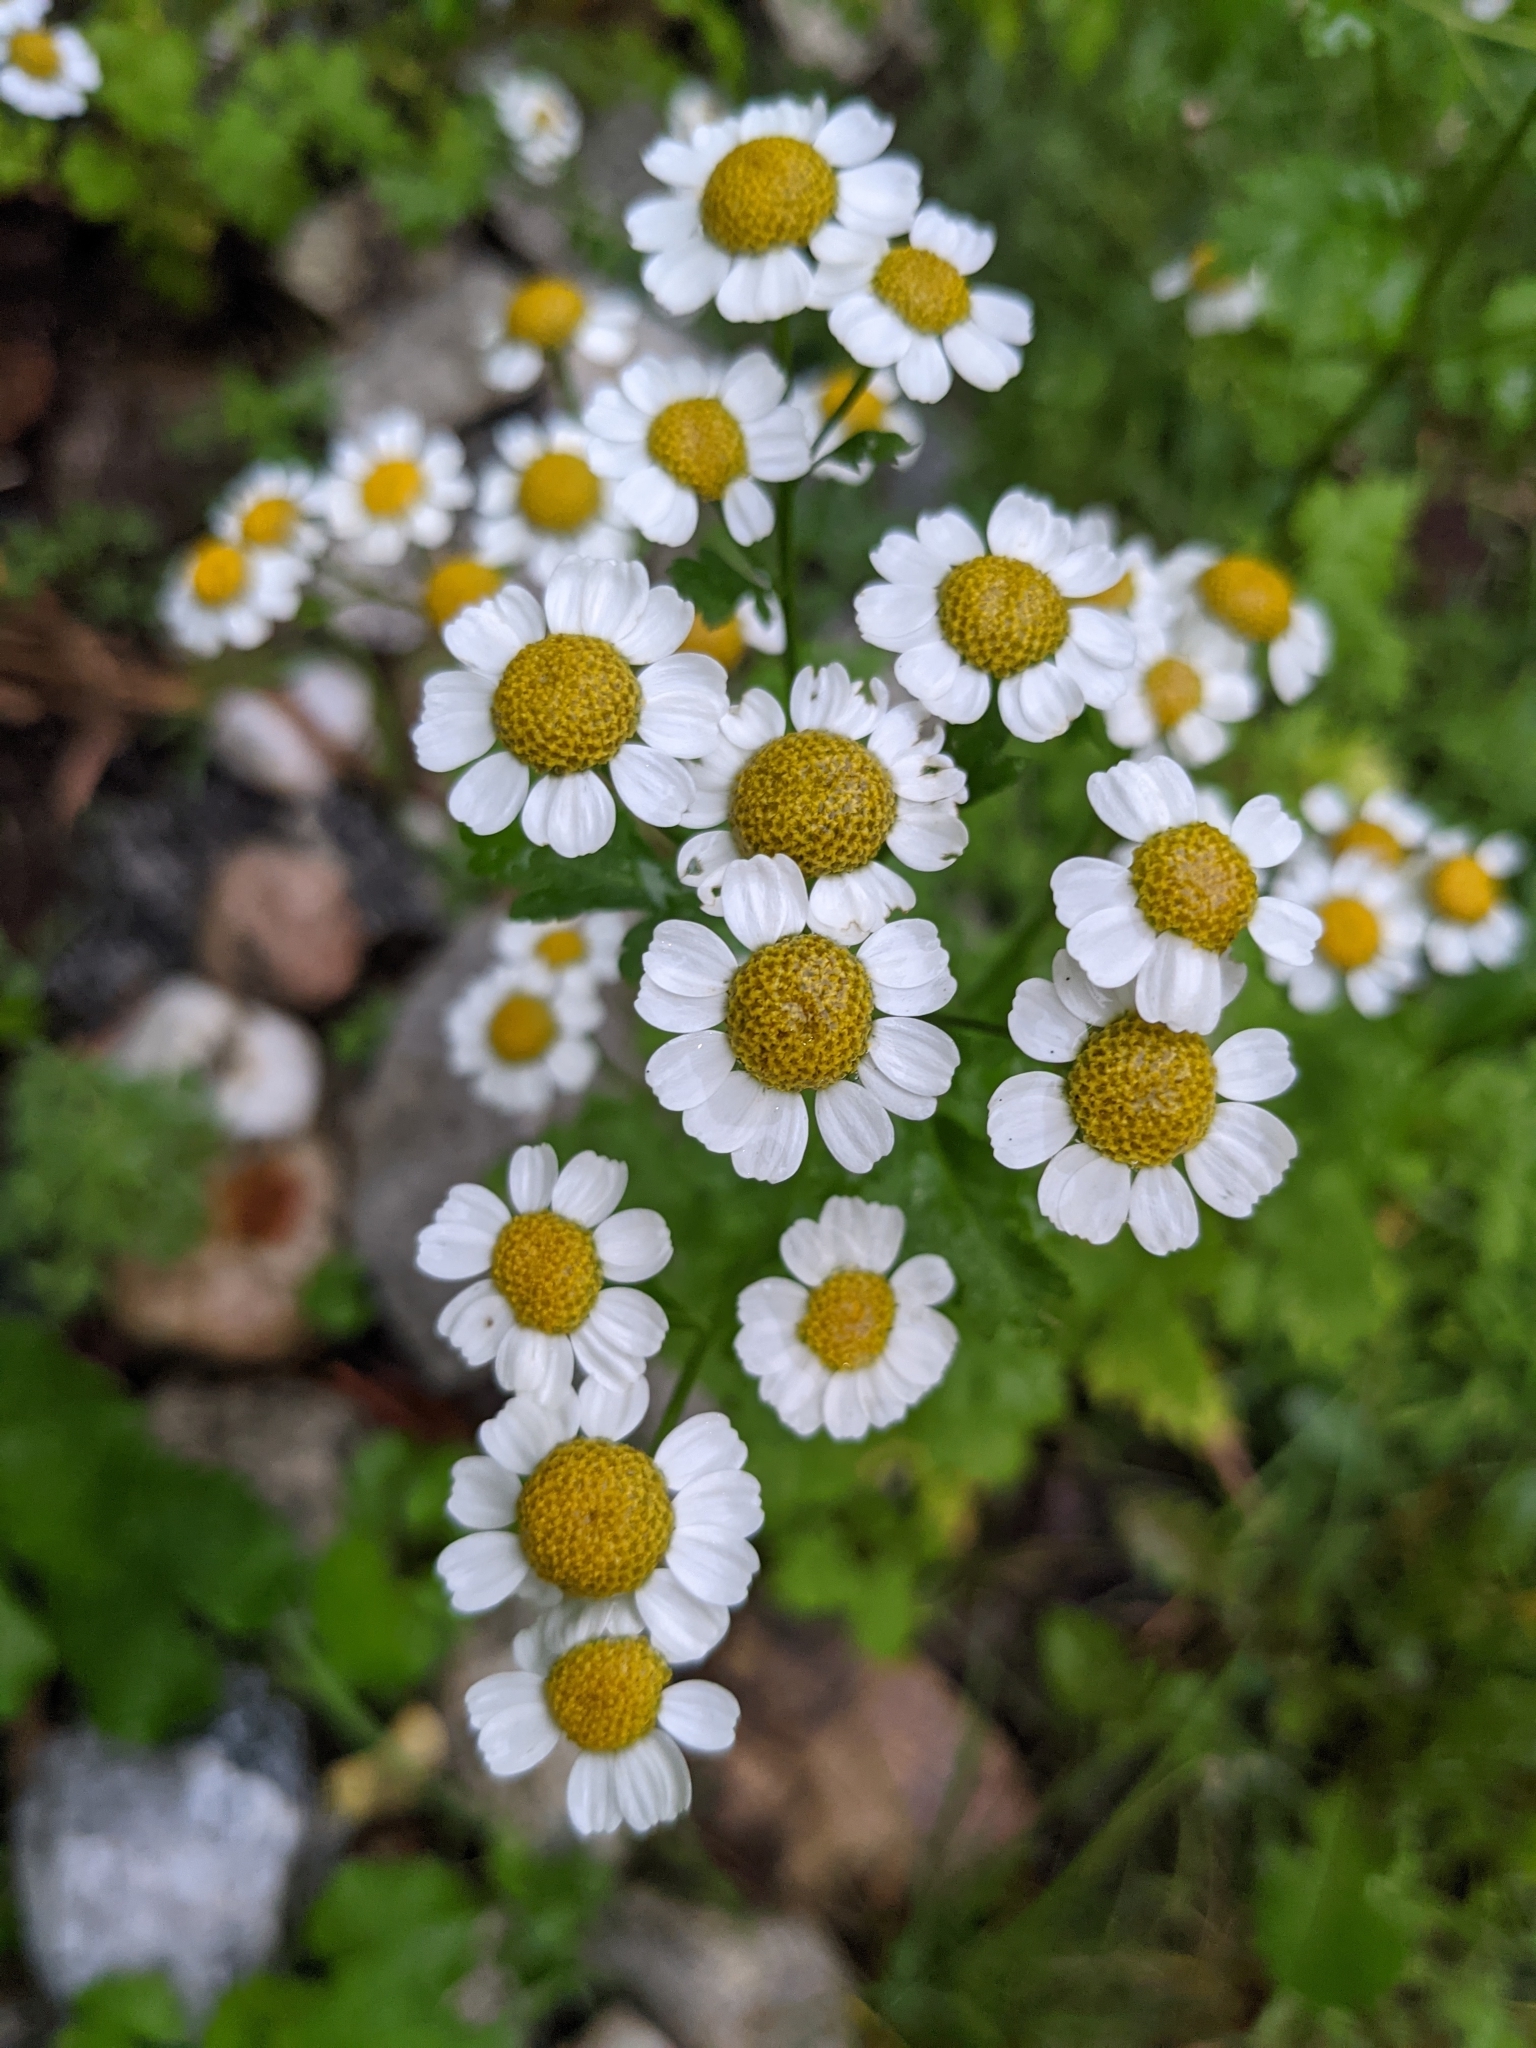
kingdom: Plantae
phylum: Tracheophyta
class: Magnoliopsida
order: Asterales
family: Asteraceae
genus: Tanacetum
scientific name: Tanacetum parthenium
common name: Feverfew
